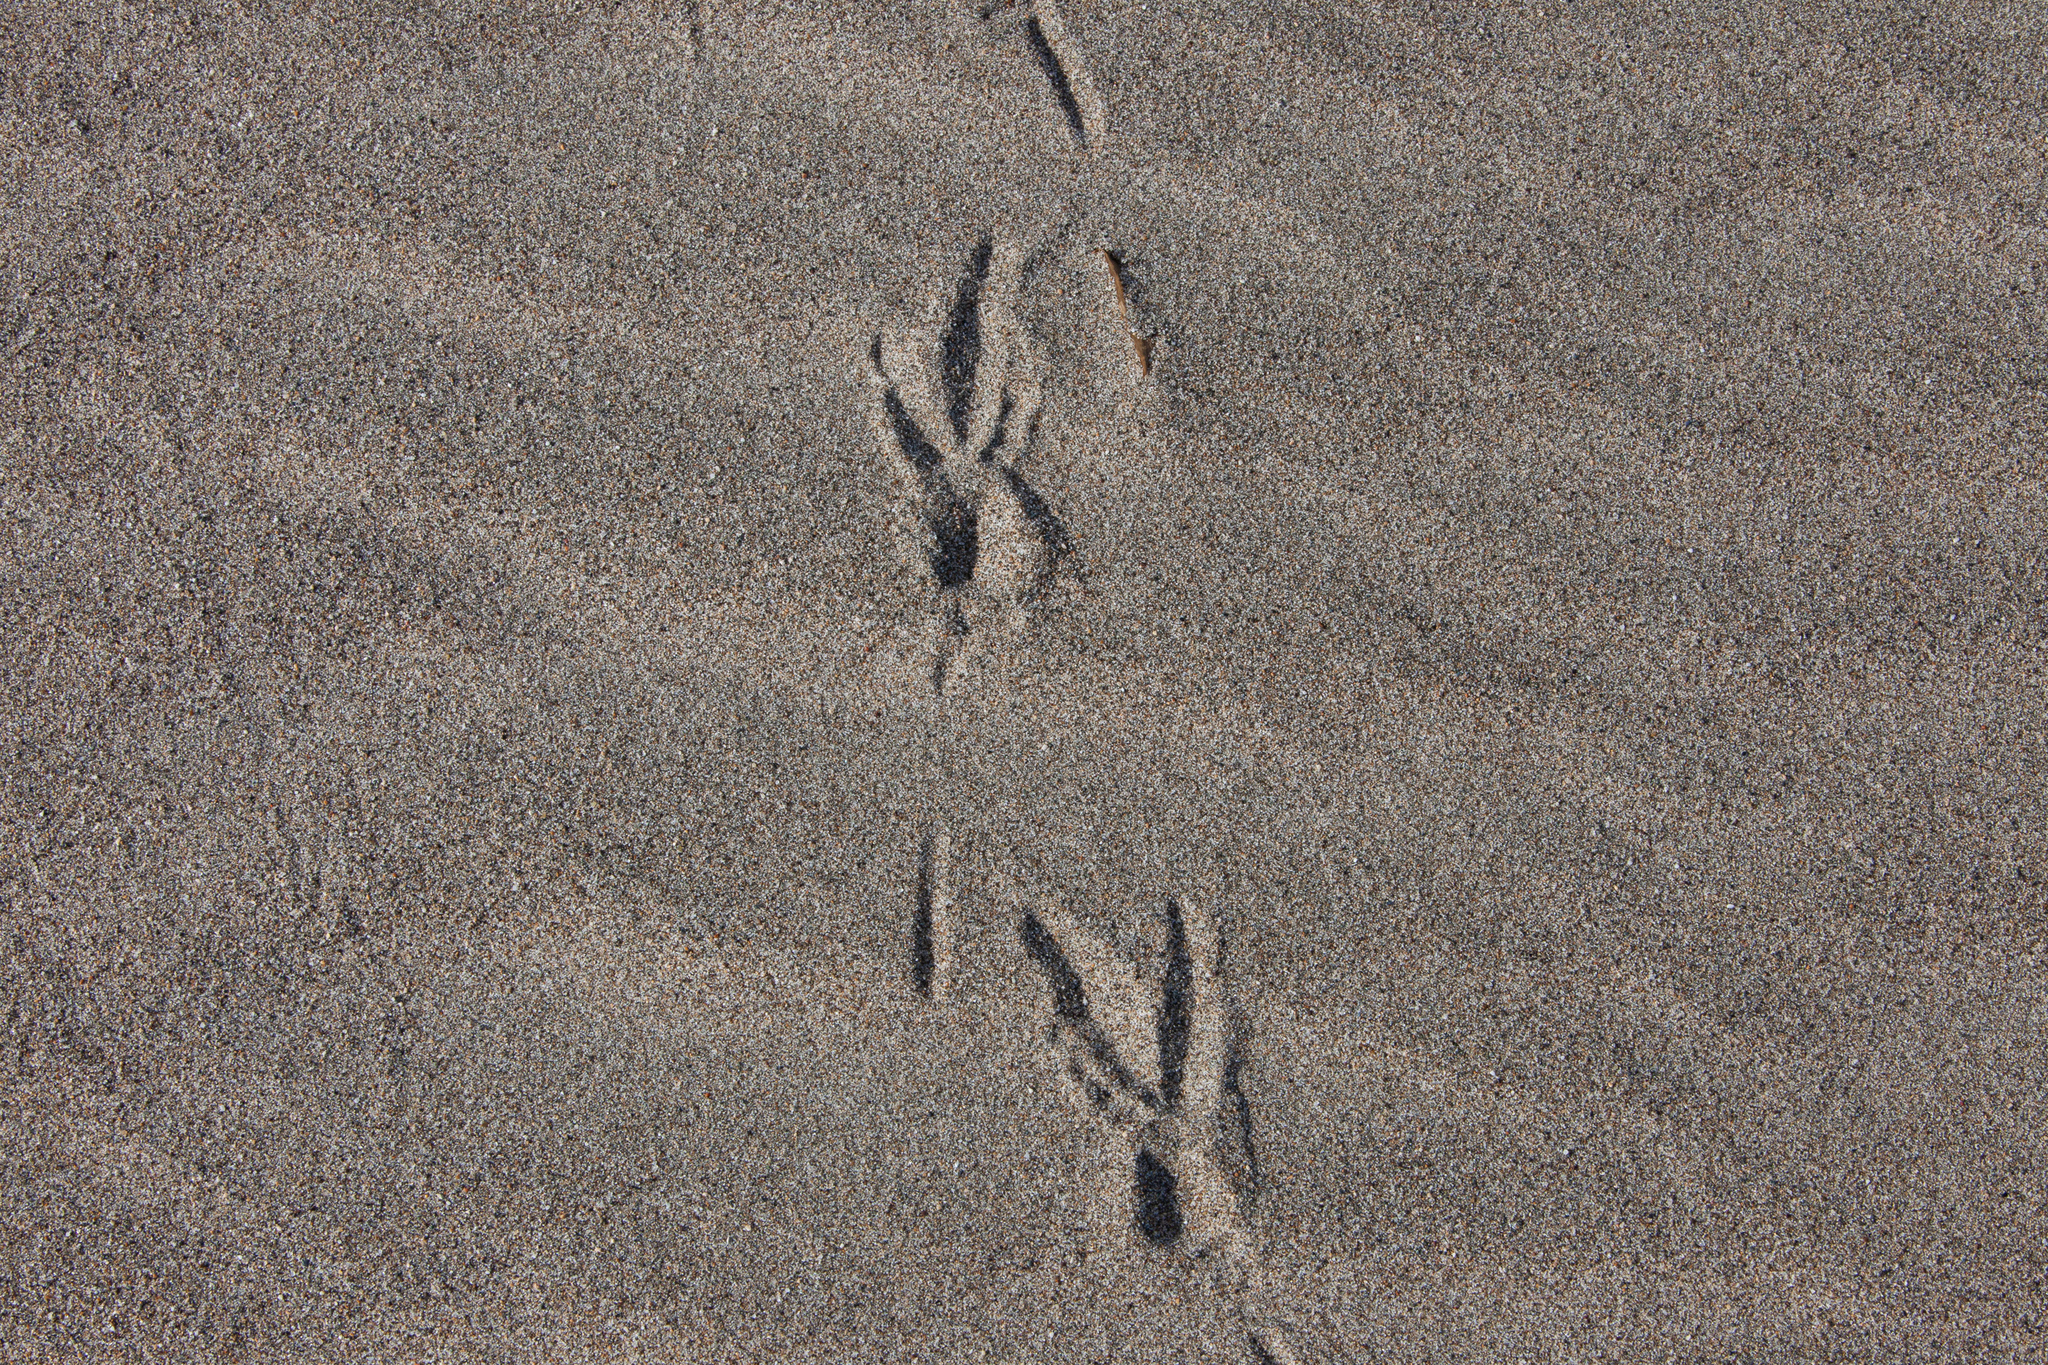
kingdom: Animalia
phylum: Chordata
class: Aves
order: Passeriformes
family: Corvidae
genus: Corvus
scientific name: Corvus corax
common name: Common raven
